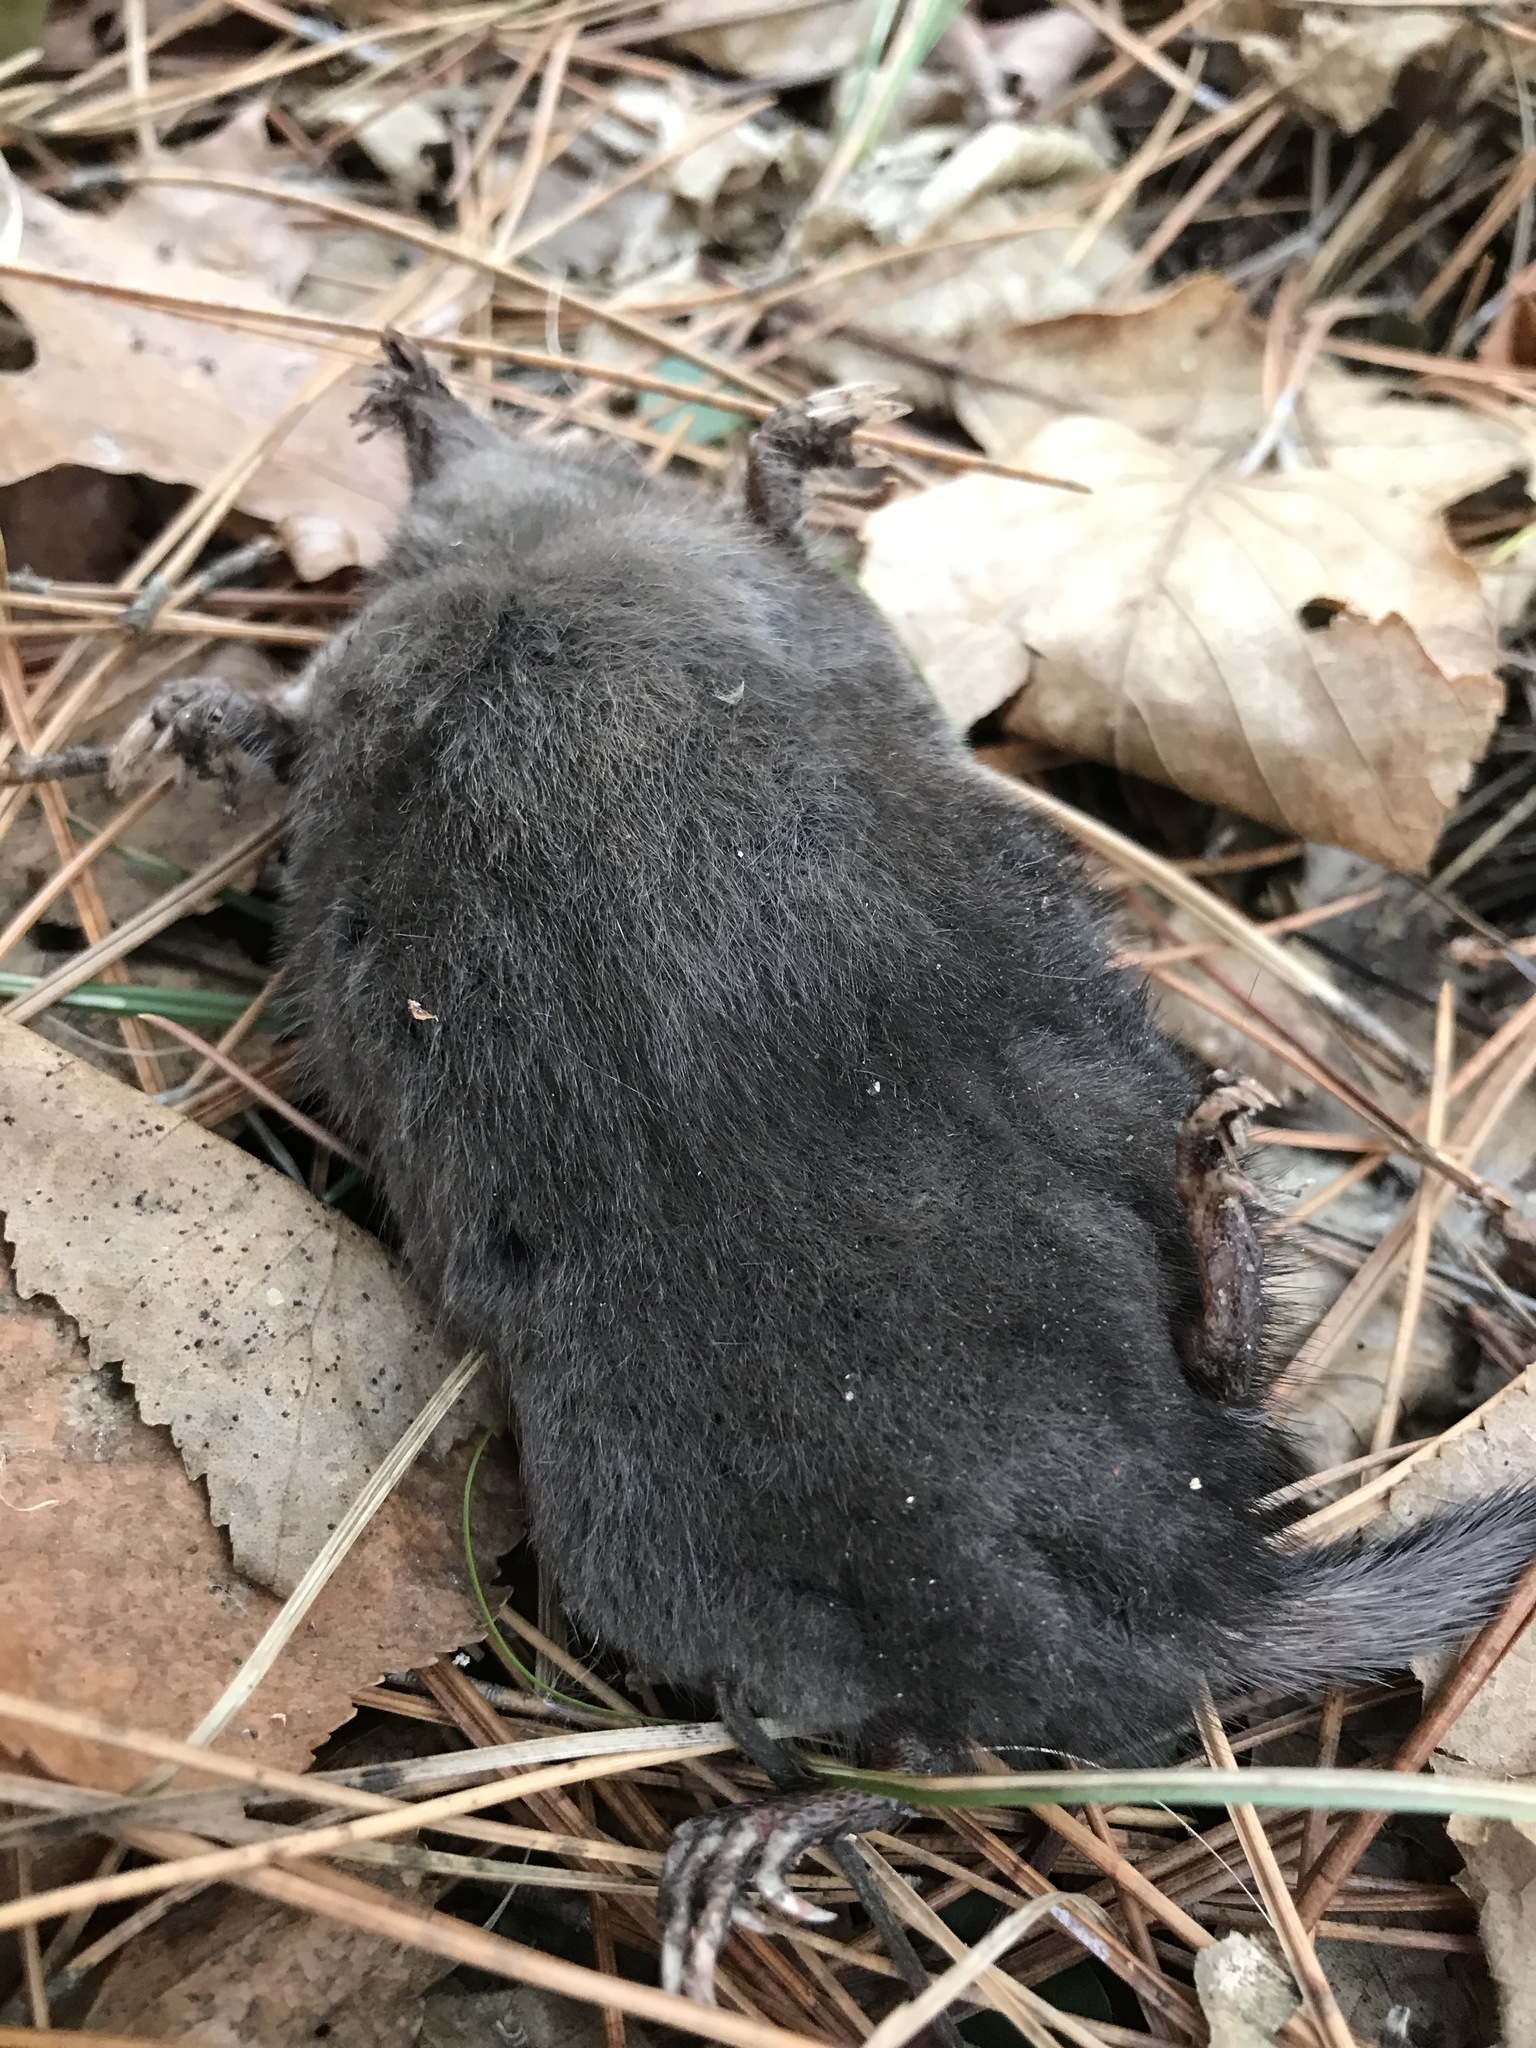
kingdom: Animalia
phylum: Chordata
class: Mammalia
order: Soricomorpha
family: Talpidae
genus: Condylura
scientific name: Condylura cristata
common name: Star-nosed mole
